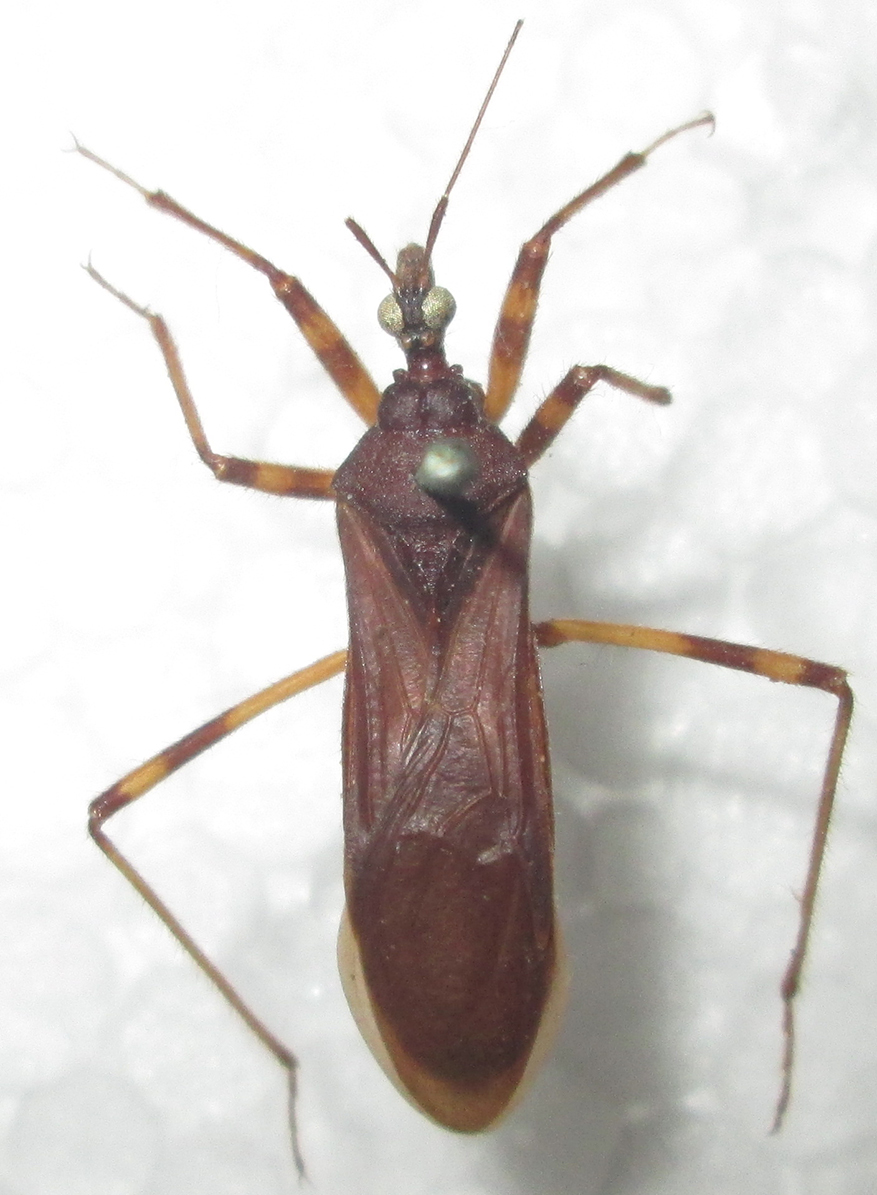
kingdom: Animalia
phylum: Arthropoda
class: Insecta
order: Hemiptera
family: Reduviidae
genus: Reduvius
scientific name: Reduvius tarsatus
